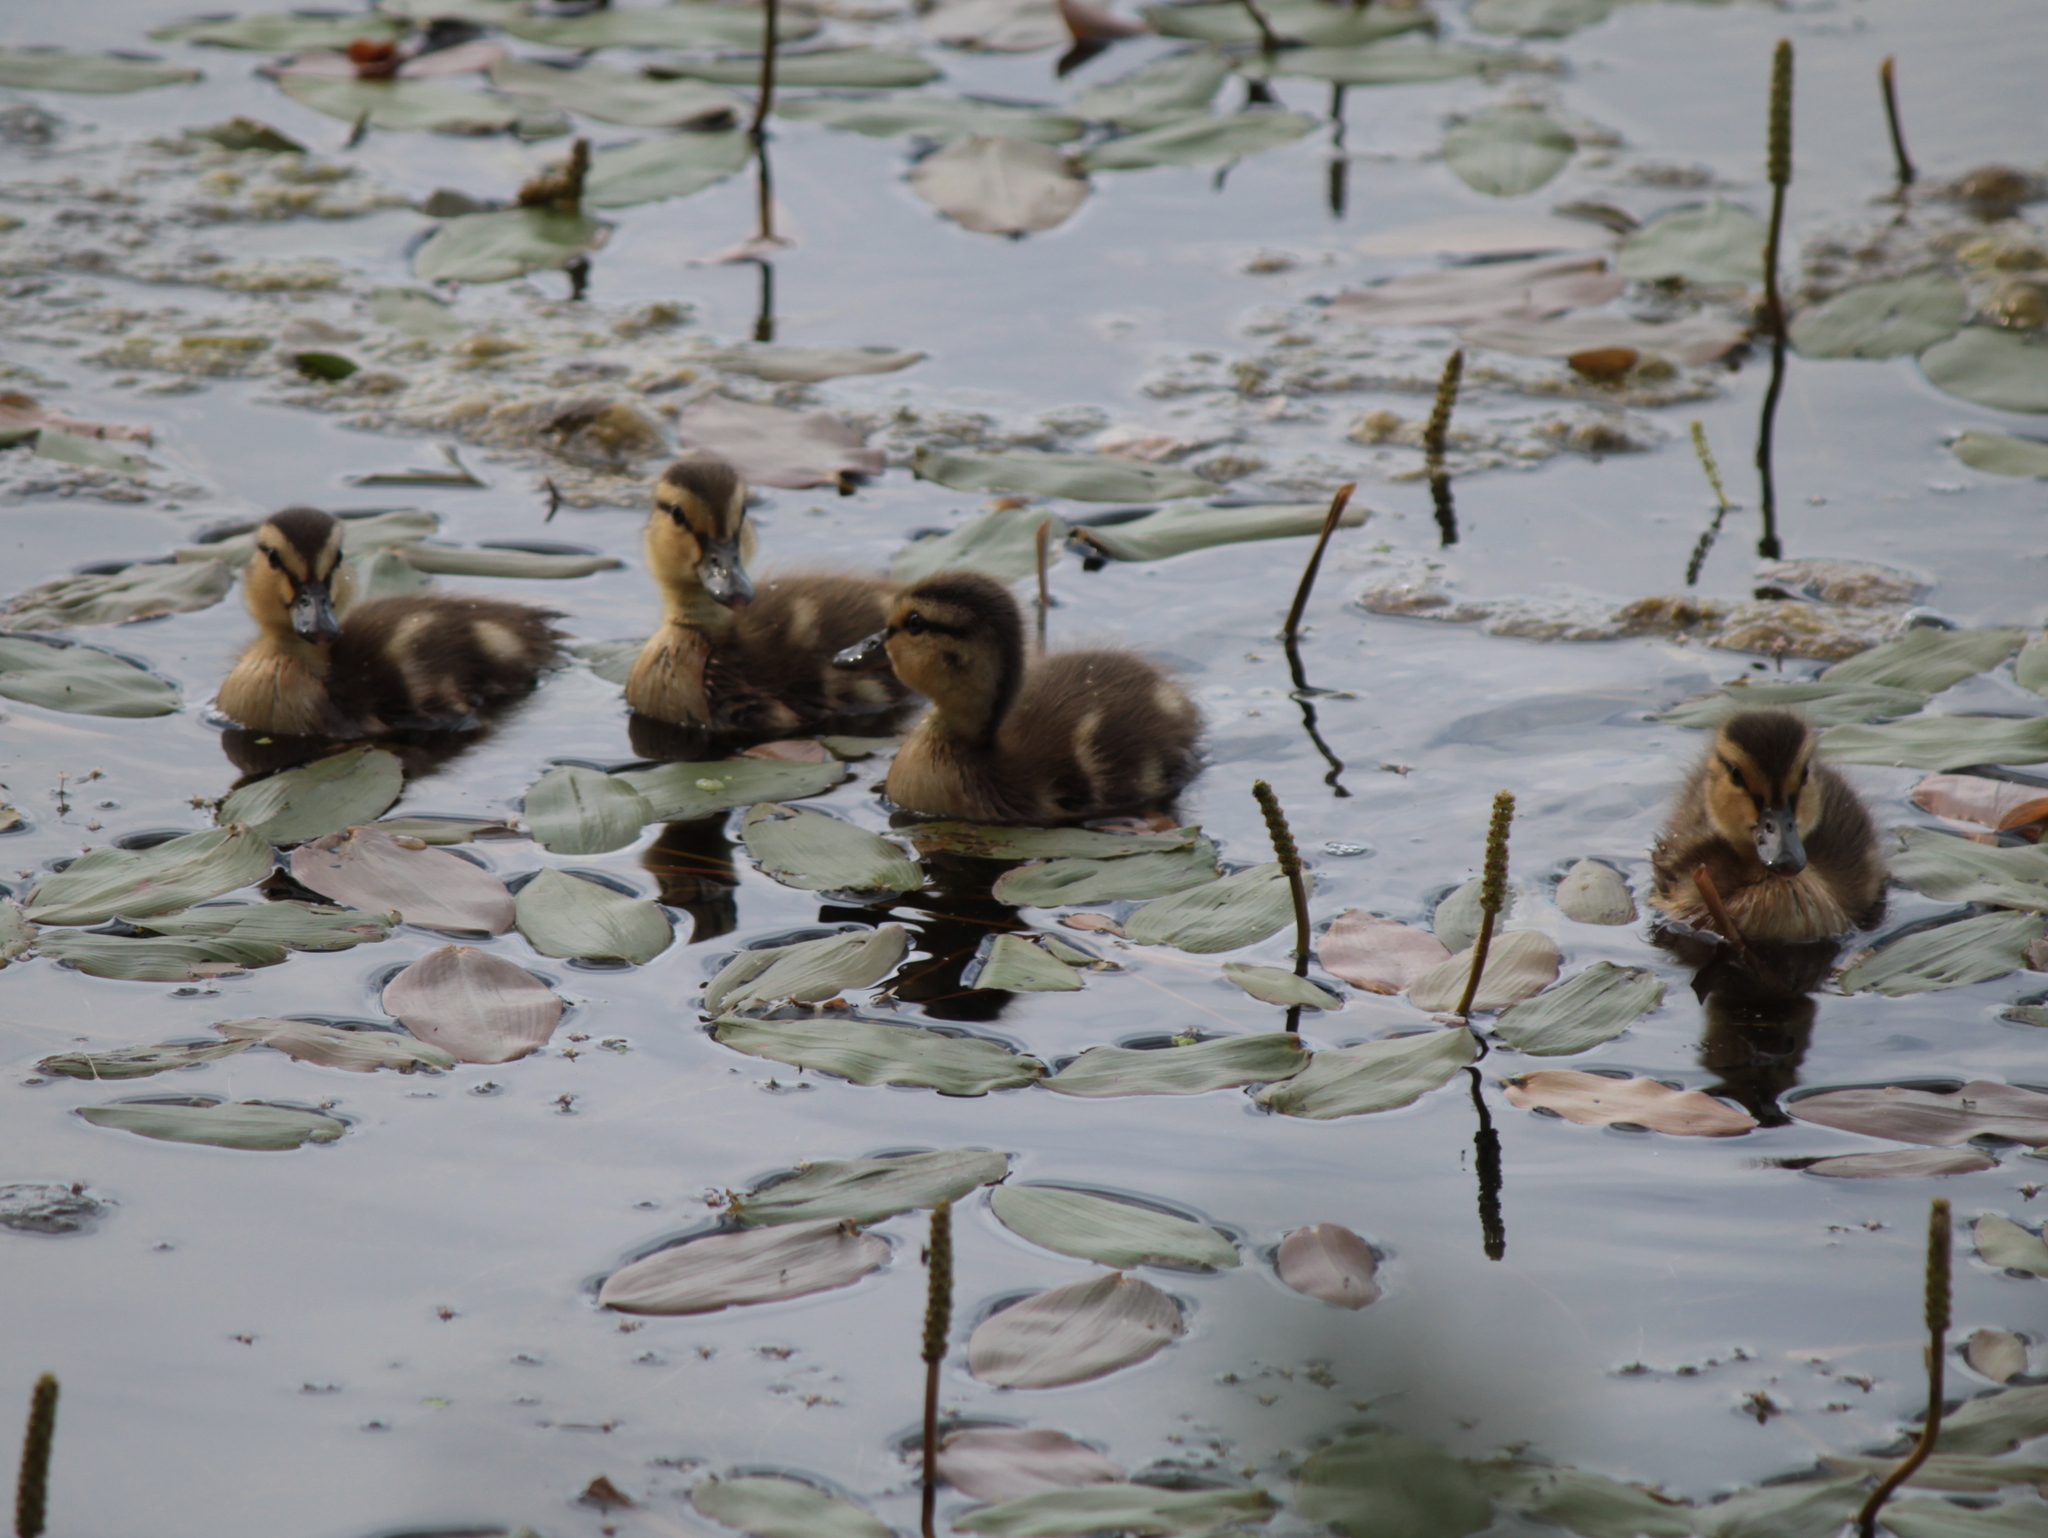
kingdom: Animalia
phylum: Chordata
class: Aves
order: Anseriformes
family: Anatidae
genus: Anas
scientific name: Anas platyrhynchos
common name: Mallard
